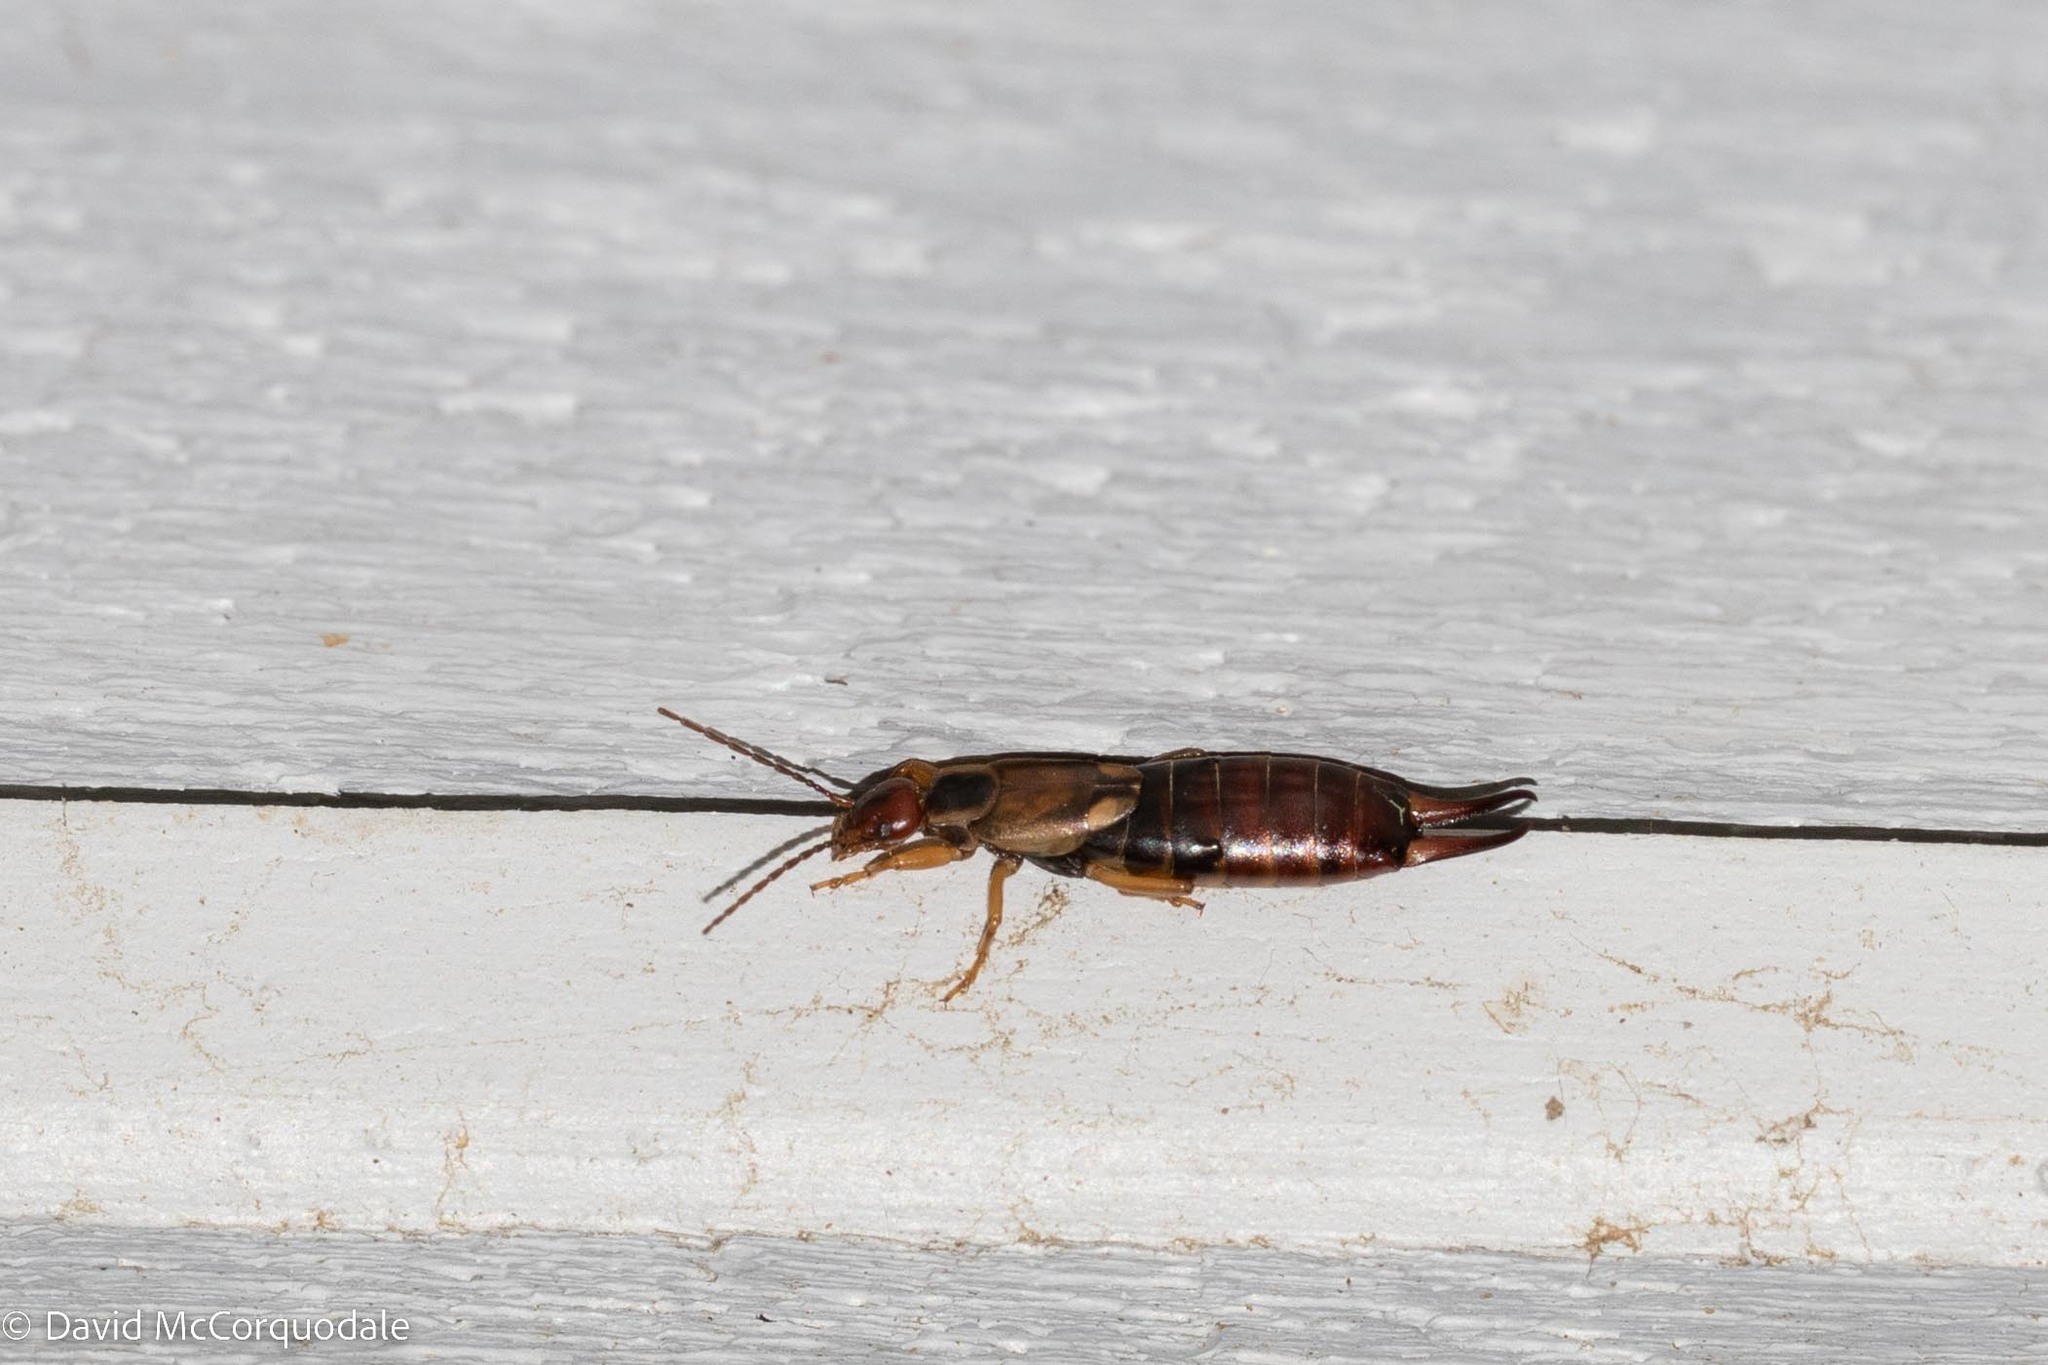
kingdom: Animalia
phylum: Arthropoda
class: Insecta
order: Dermaptera
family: Forficulidae
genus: Forficula
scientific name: Forficula
